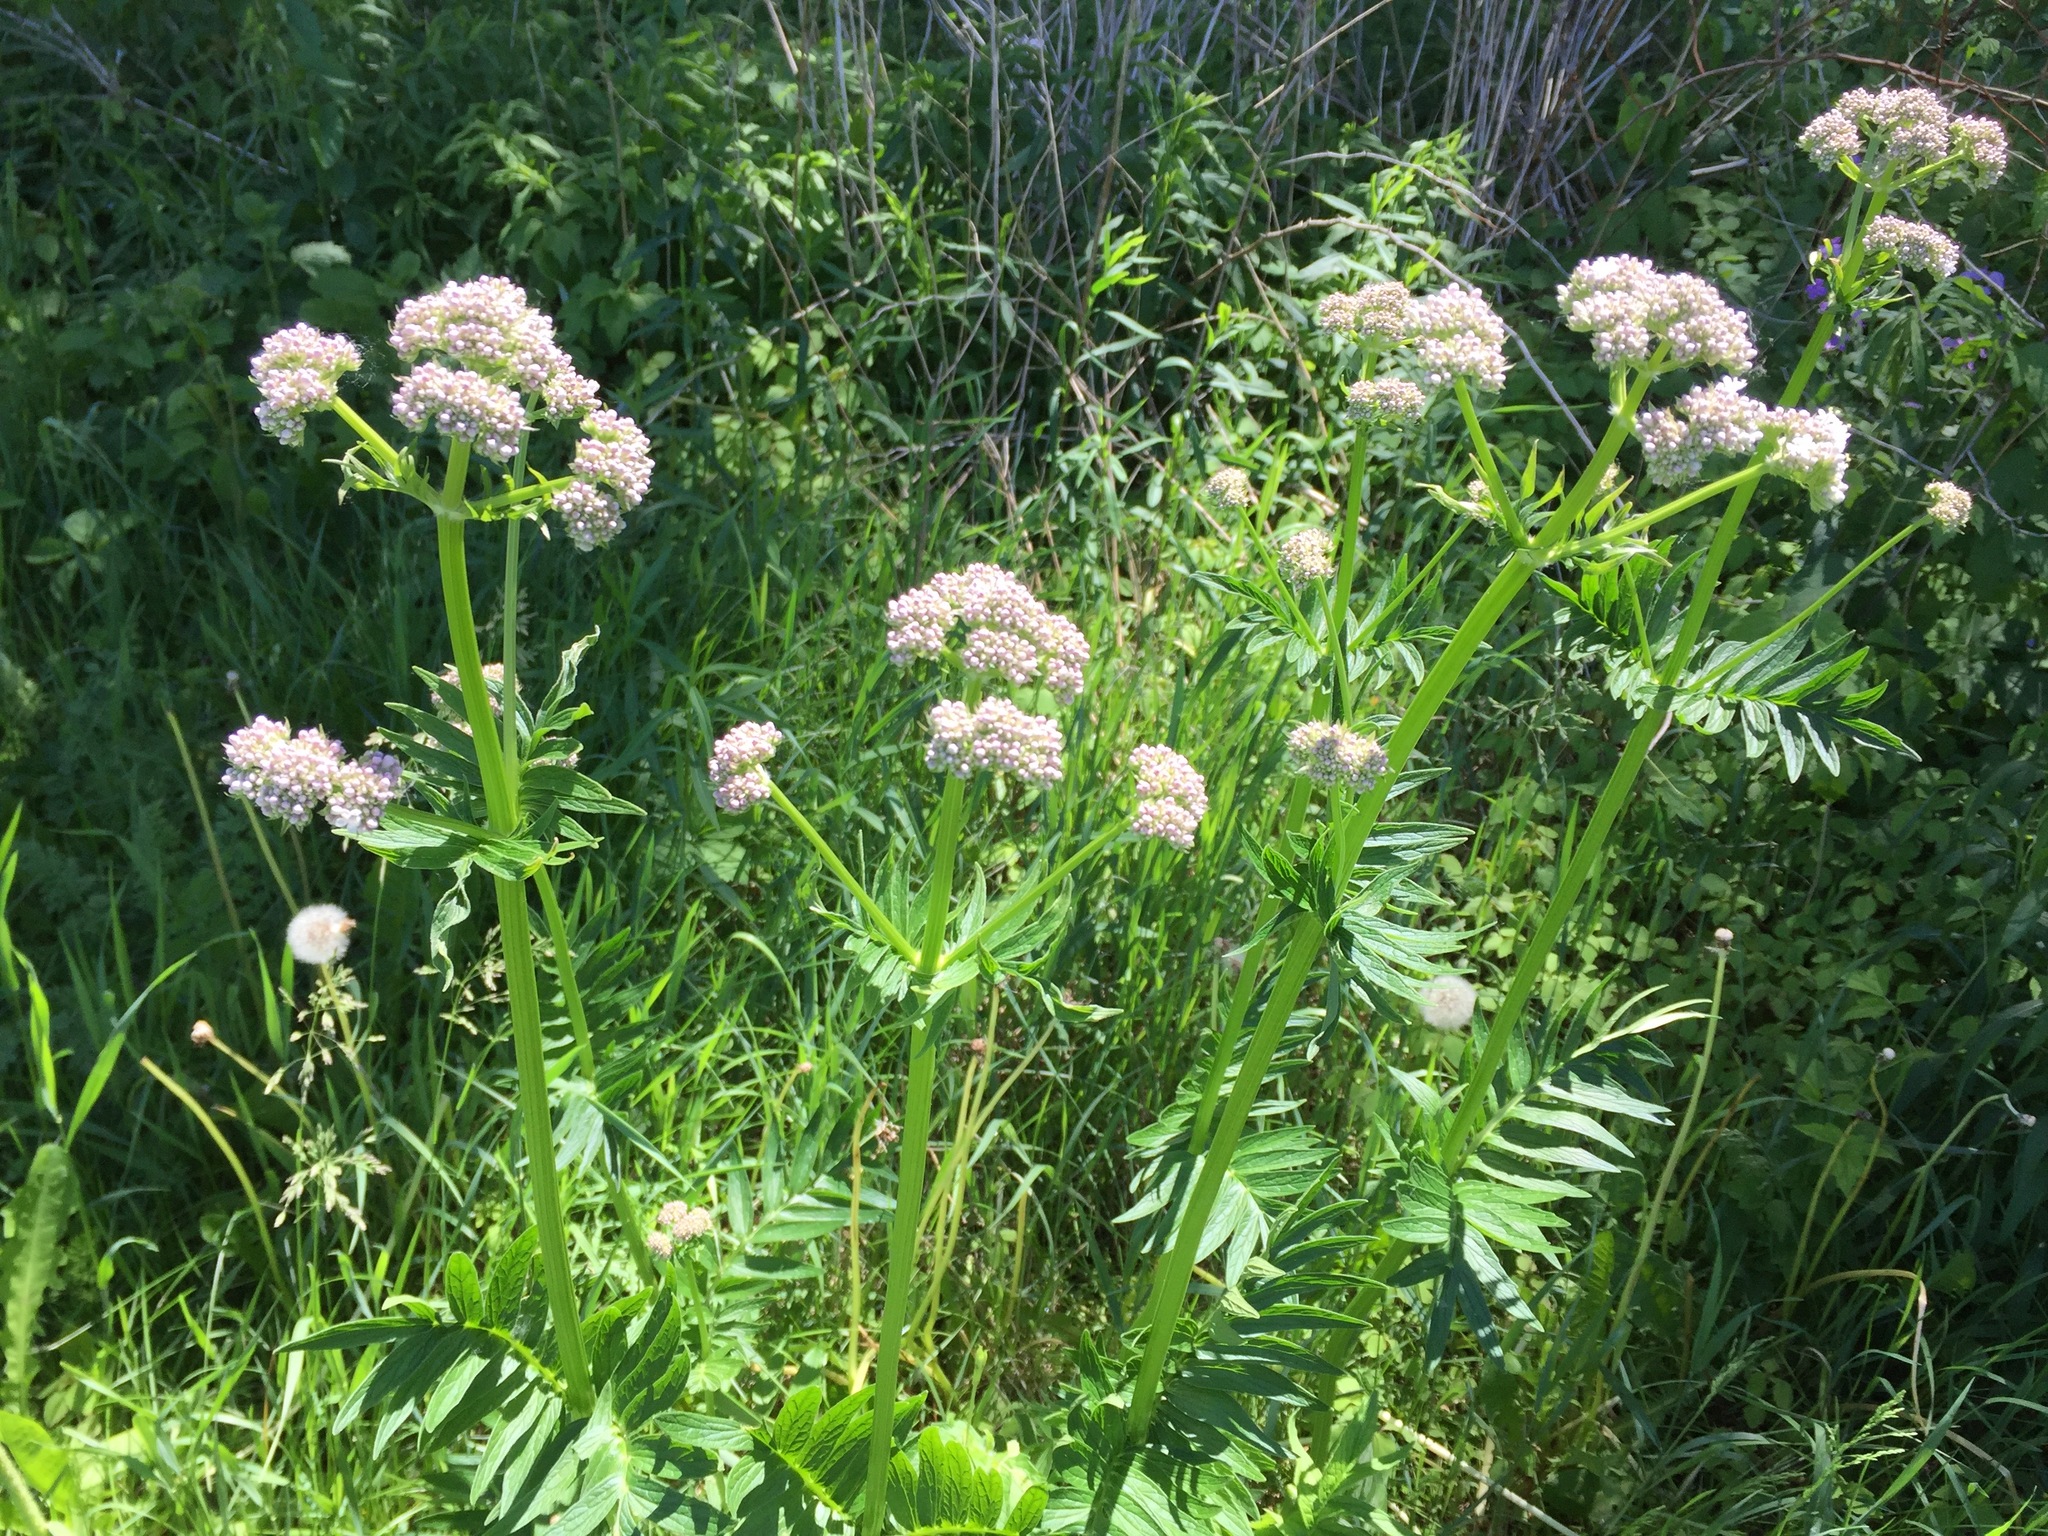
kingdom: Plantae
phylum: Tracheophyta
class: Magnoliopsida
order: Dipsacales
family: Caprifoliaceae
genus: Valeriana
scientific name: Valeriana officinalis
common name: Common valerian
